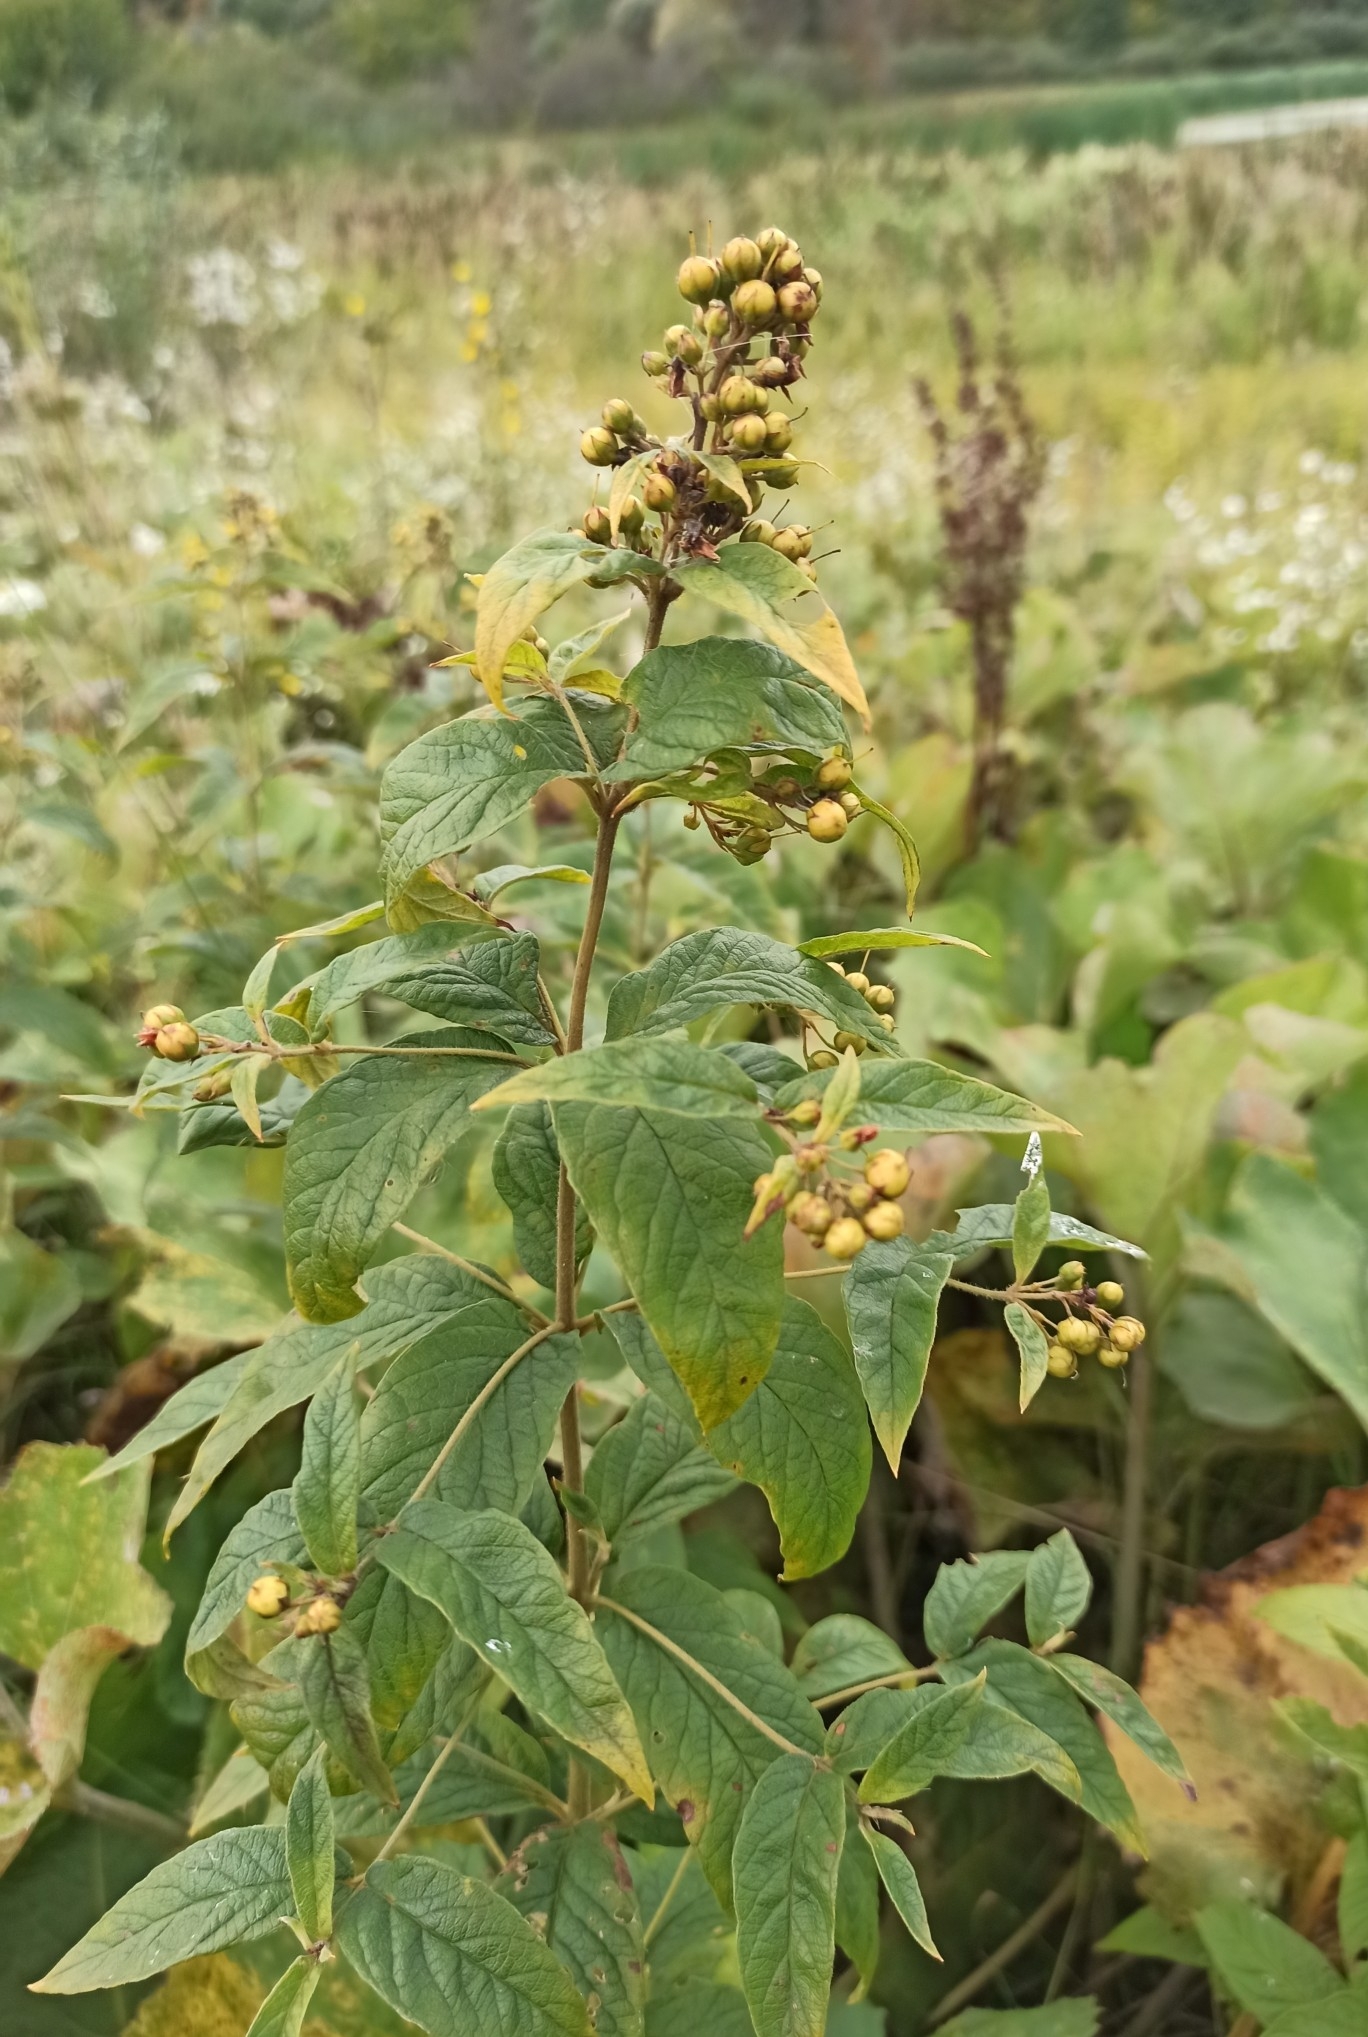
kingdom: Plantae
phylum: Tracheophyta
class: Magnoliopsida
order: Ericales
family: Primulaceae
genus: Lysimachia
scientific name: Lysimachia vulgaris
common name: Yellow loosestrife
